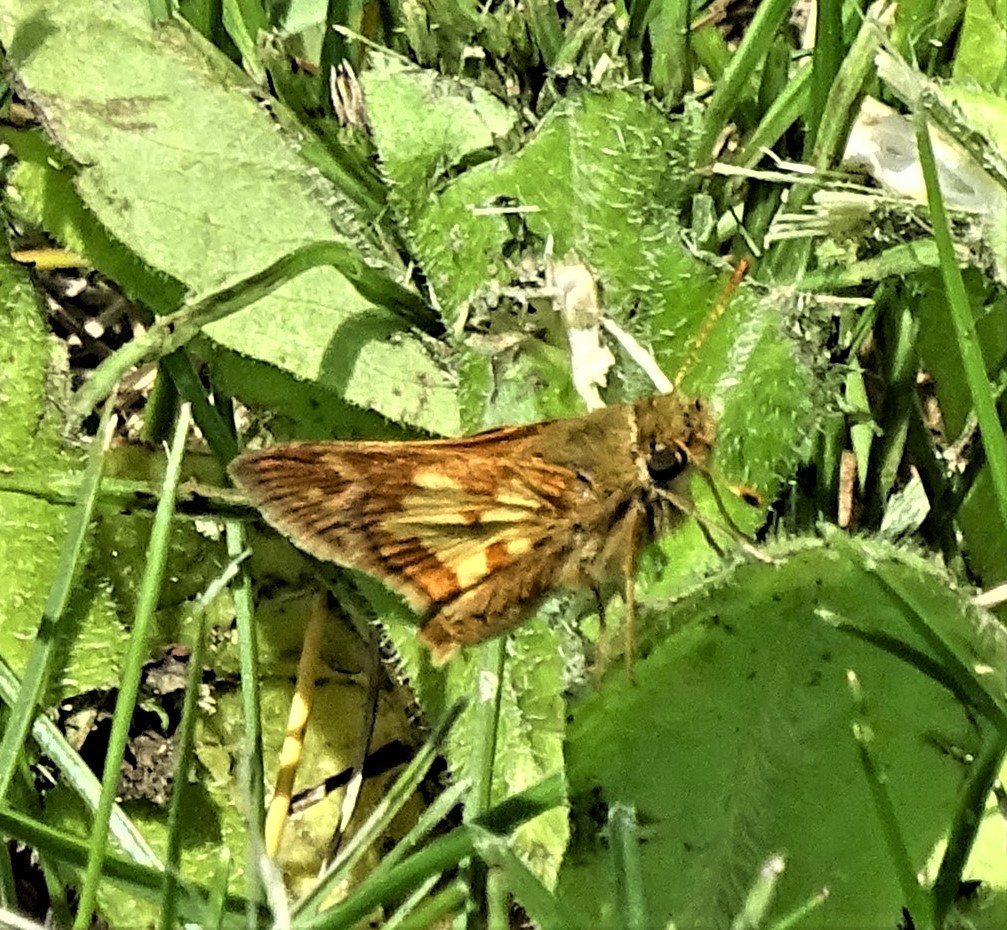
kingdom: Animalia
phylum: Arthropoda
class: Insecta
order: Lepidoptera
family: Hesperiidae
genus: Polites
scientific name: Polites coras
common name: Peck's skipper
